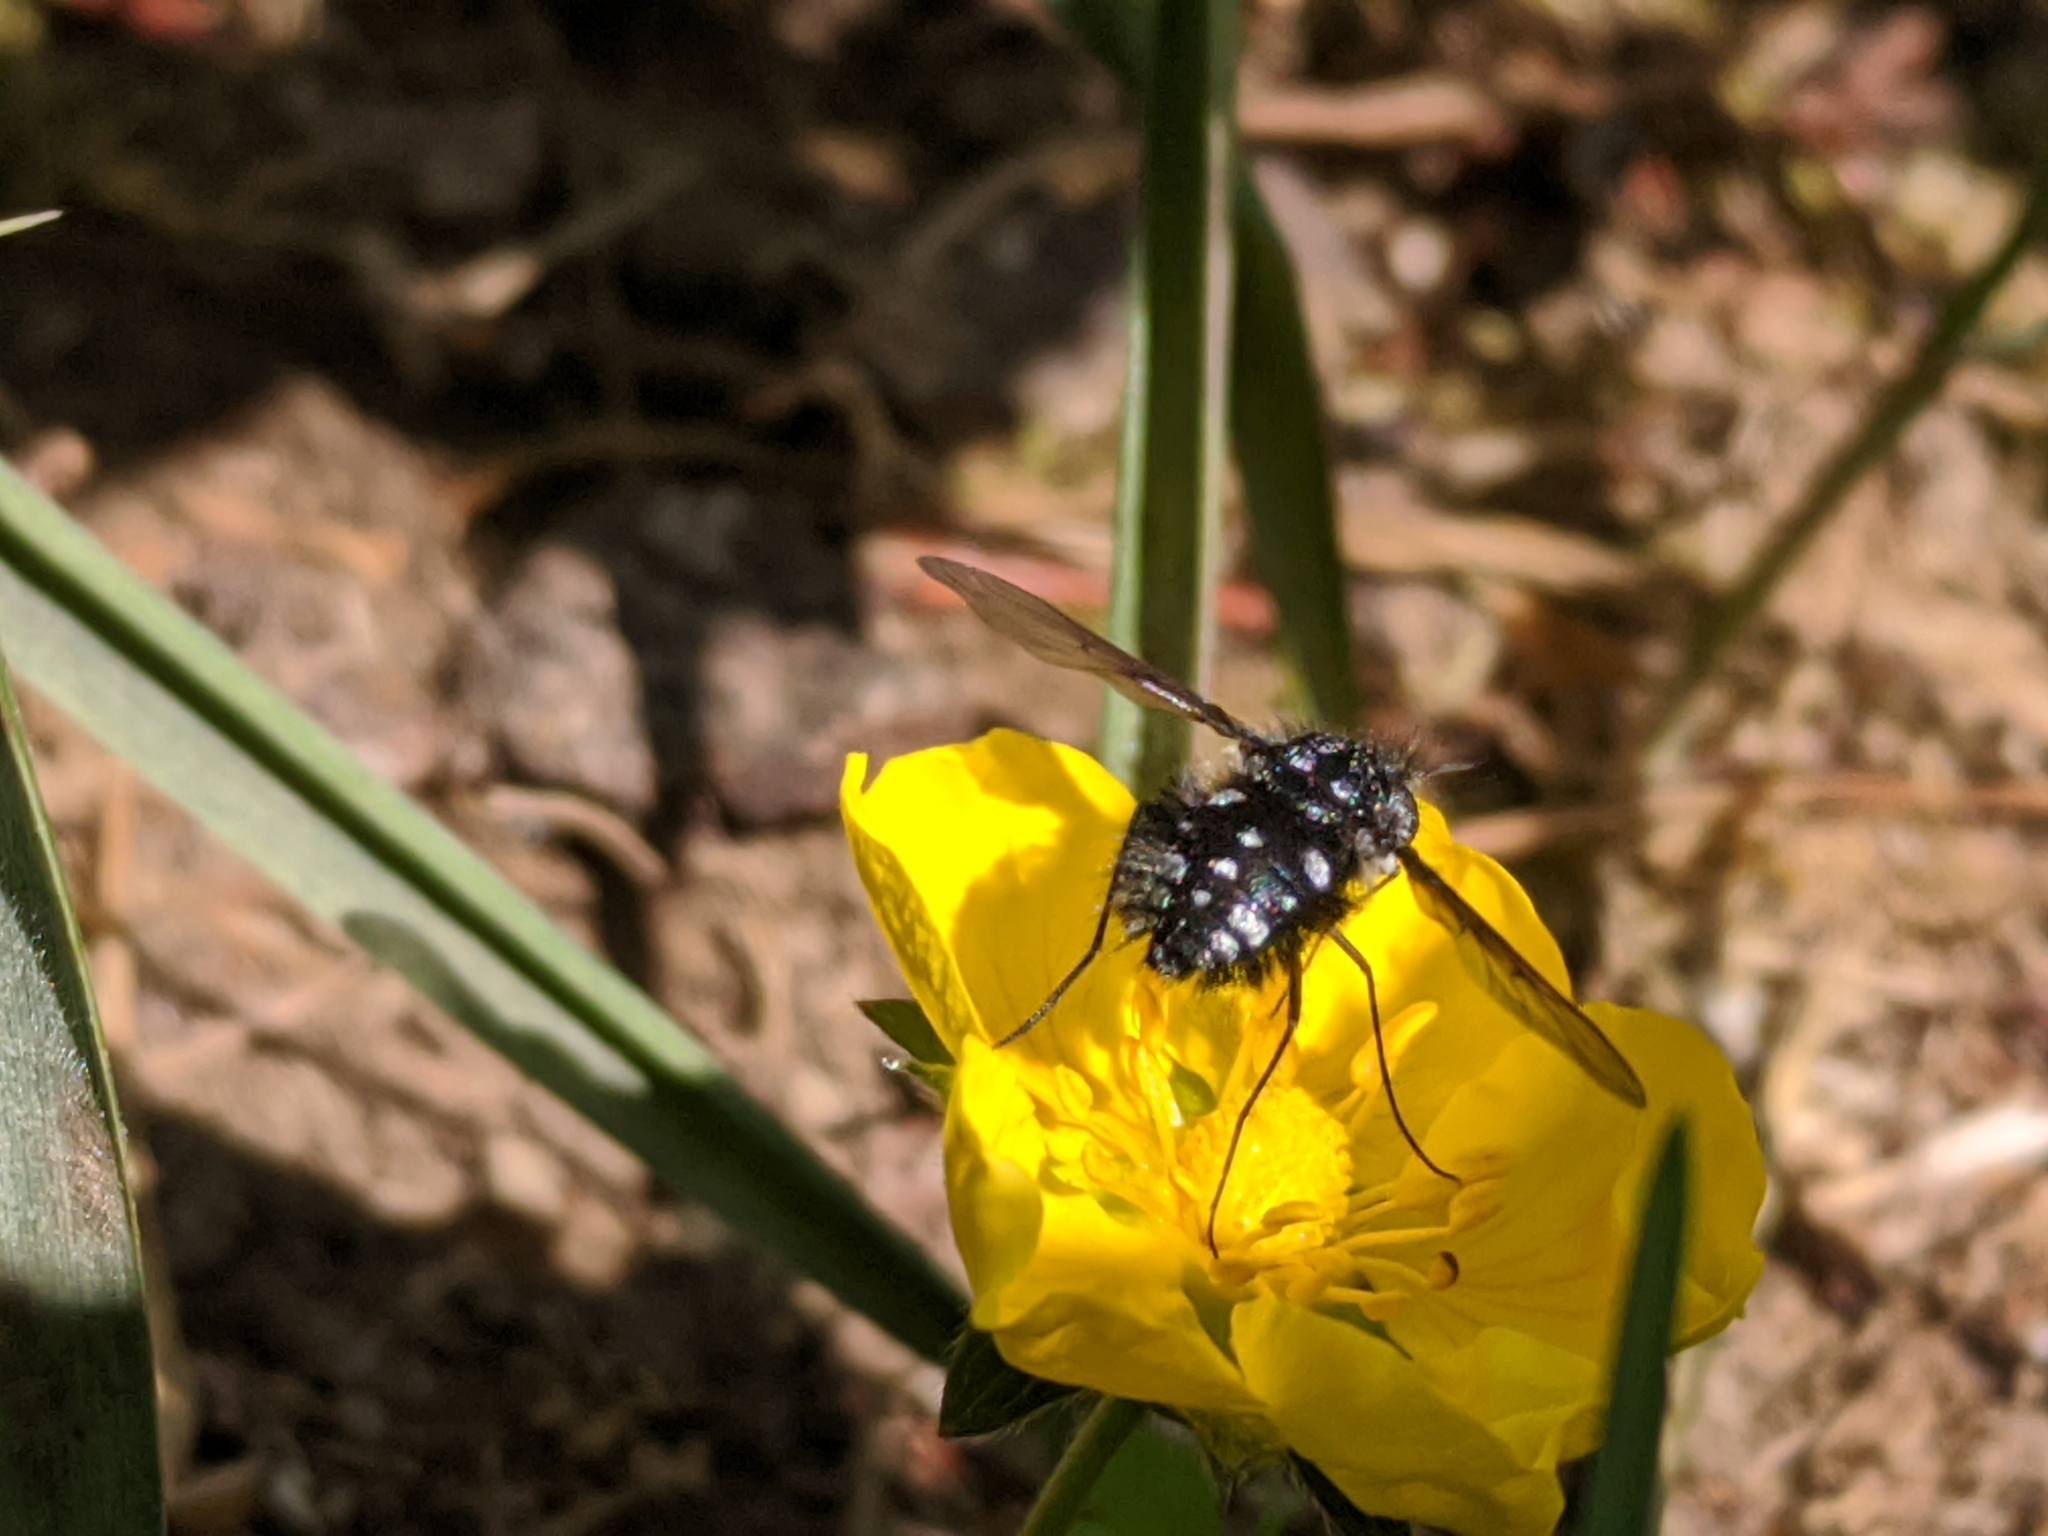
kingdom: Animalia
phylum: Arthropoda
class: Insecta
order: Diptera
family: Bombyliidae
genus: Bombylella
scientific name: Bombylella atra
